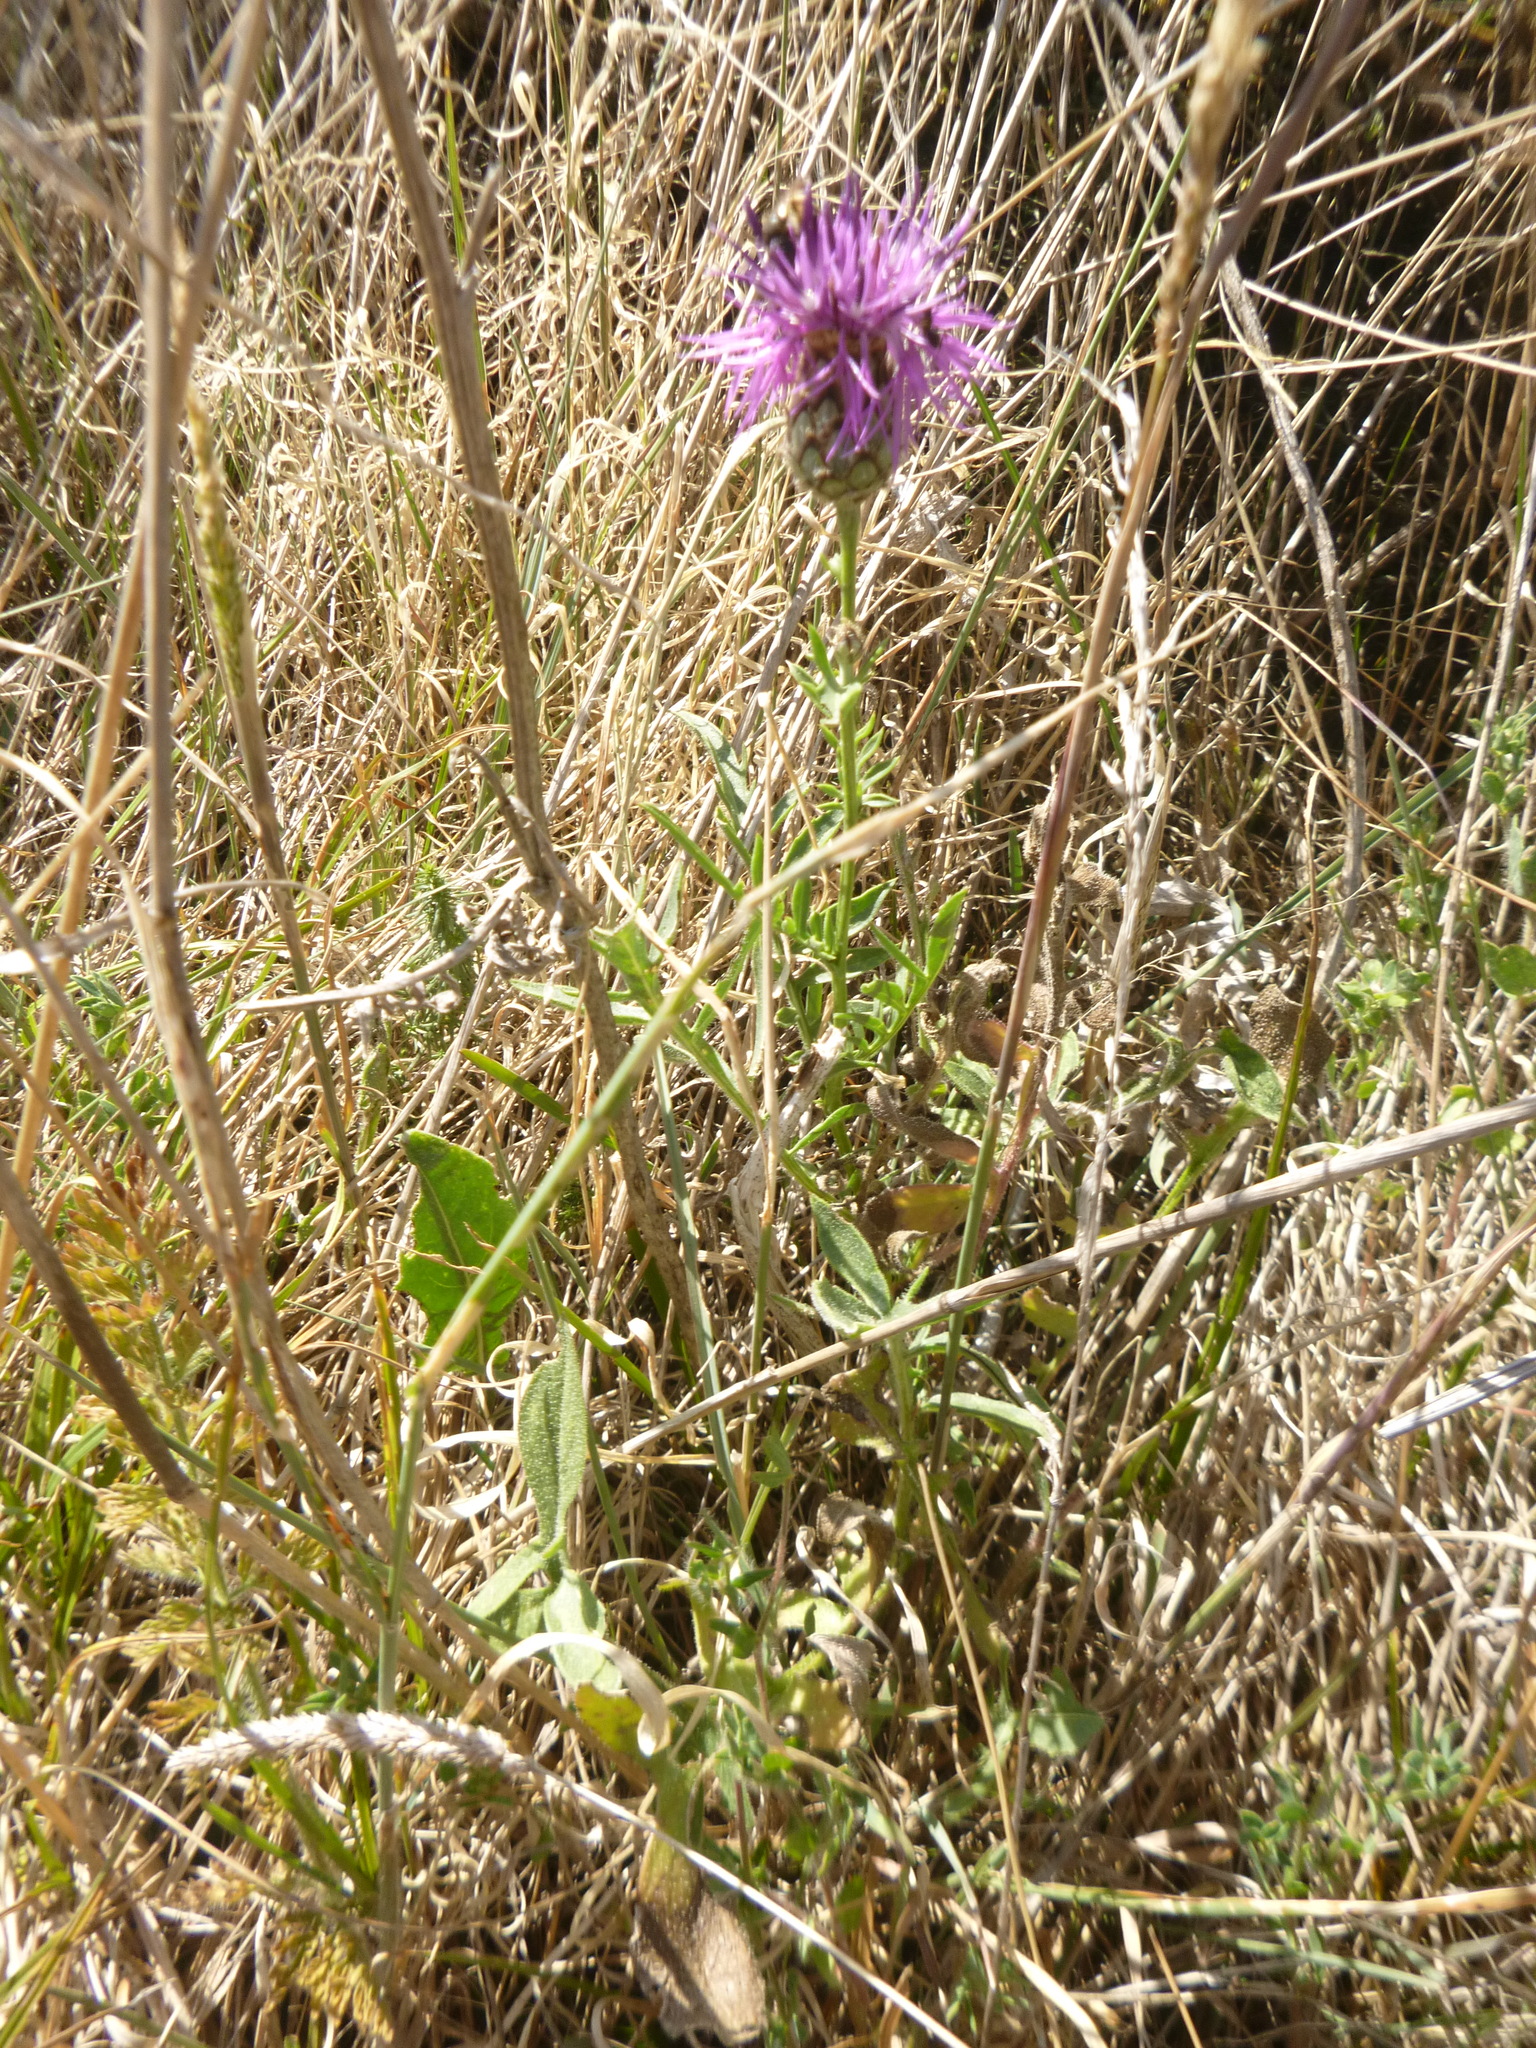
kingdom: Plantae
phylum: Tracheophyta
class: Magnoliopsida
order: Asterales
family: Asteraceae
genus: Centaurea
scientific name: Centaurea scabiosa
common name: Greater knapweed
